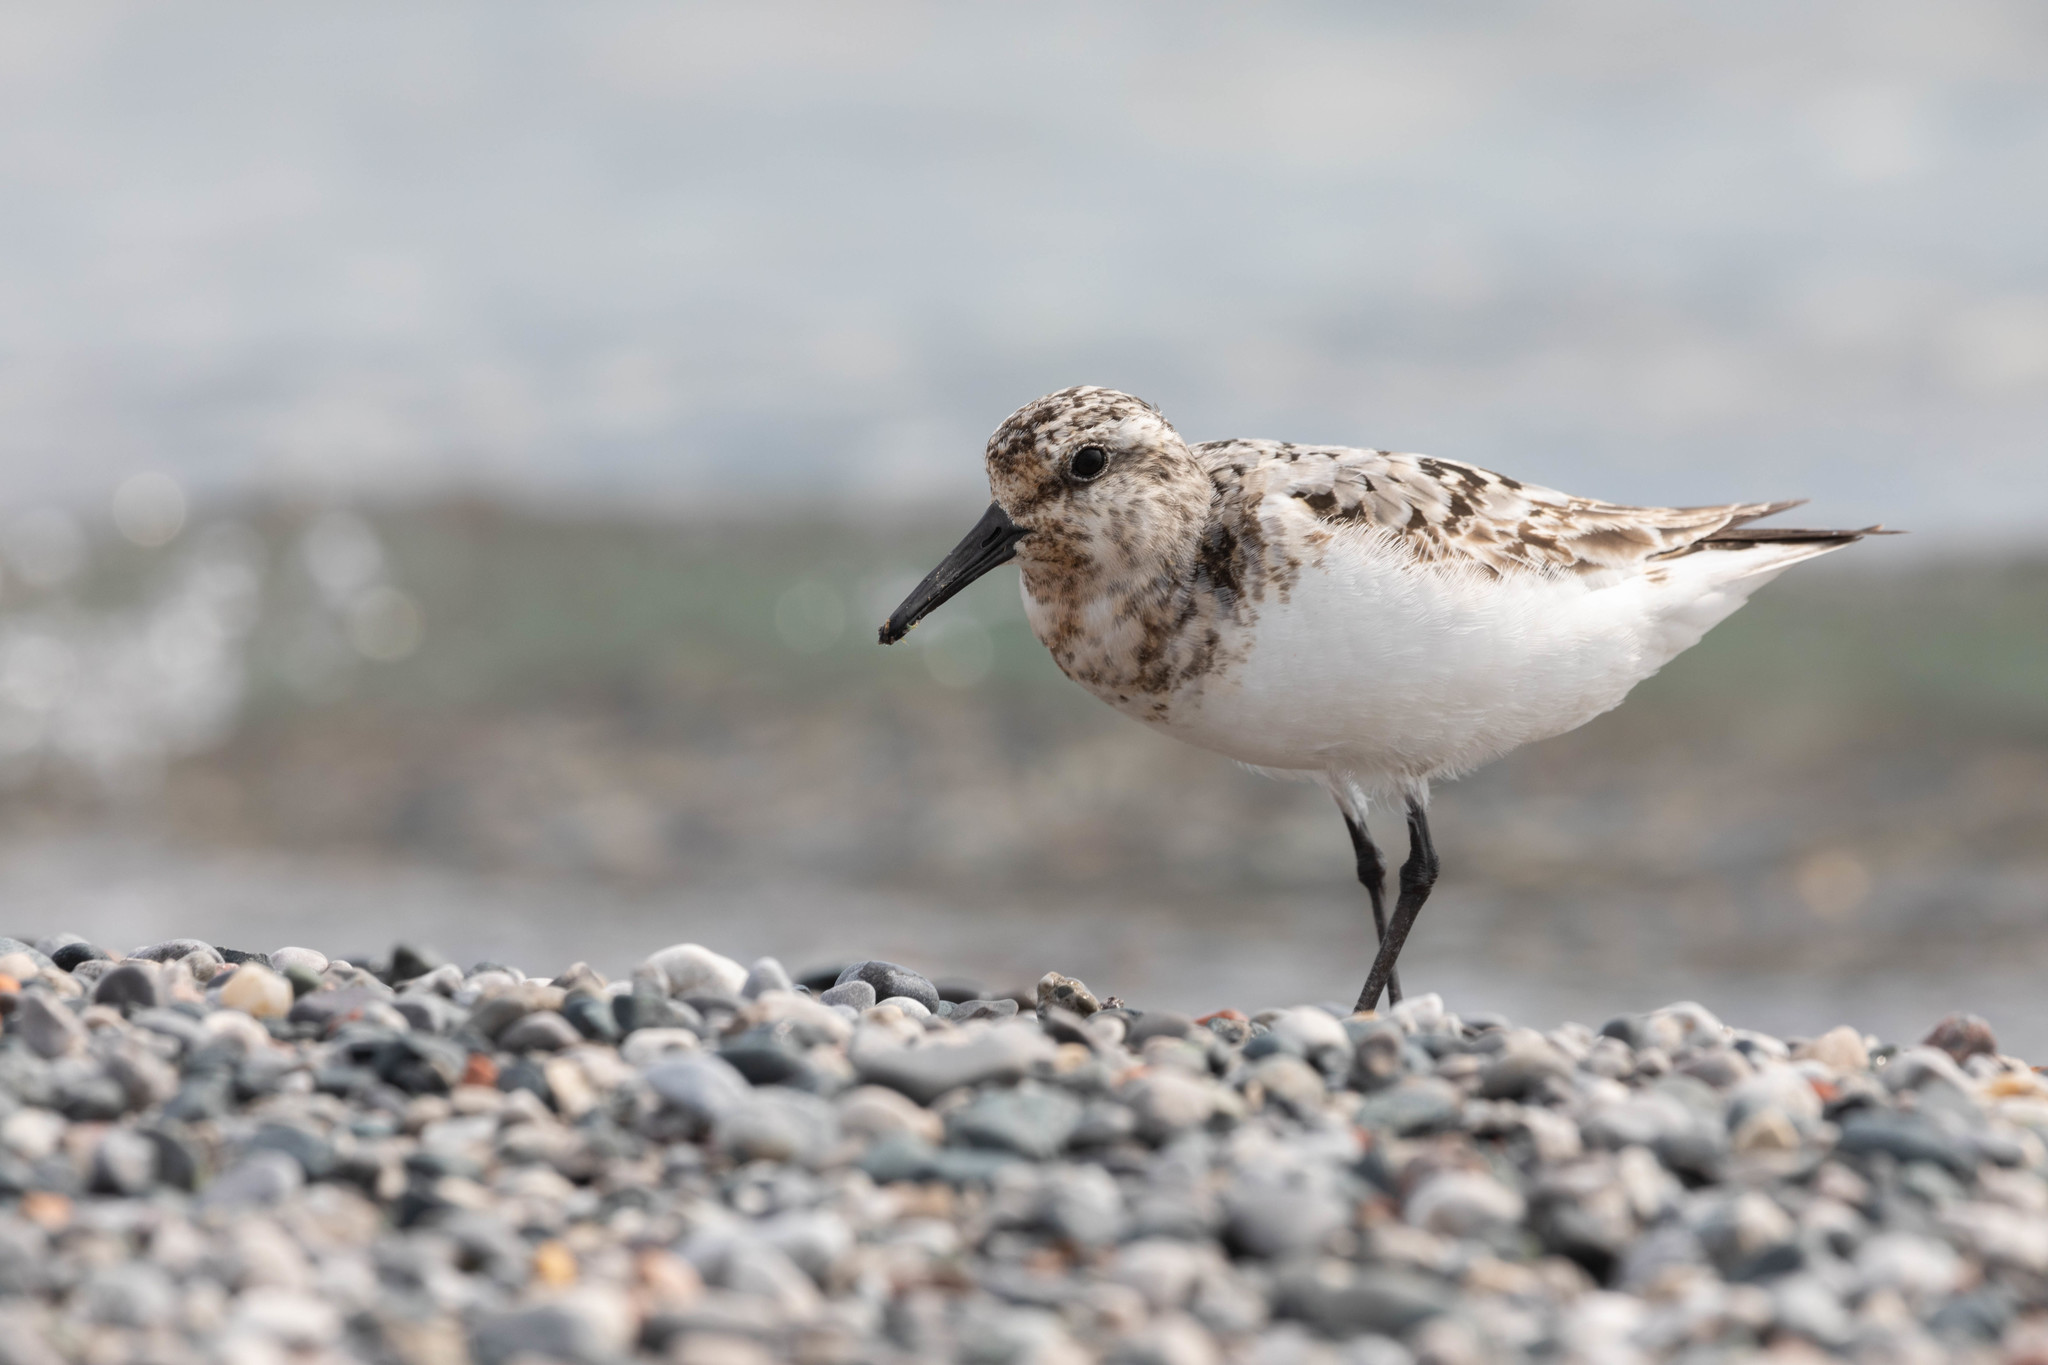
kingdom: Animalia
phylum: Chordata
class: Aves
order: Charadriiformes
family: Scolopacidae
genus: Calidris
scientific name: Calidris alba
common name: Sanderling
